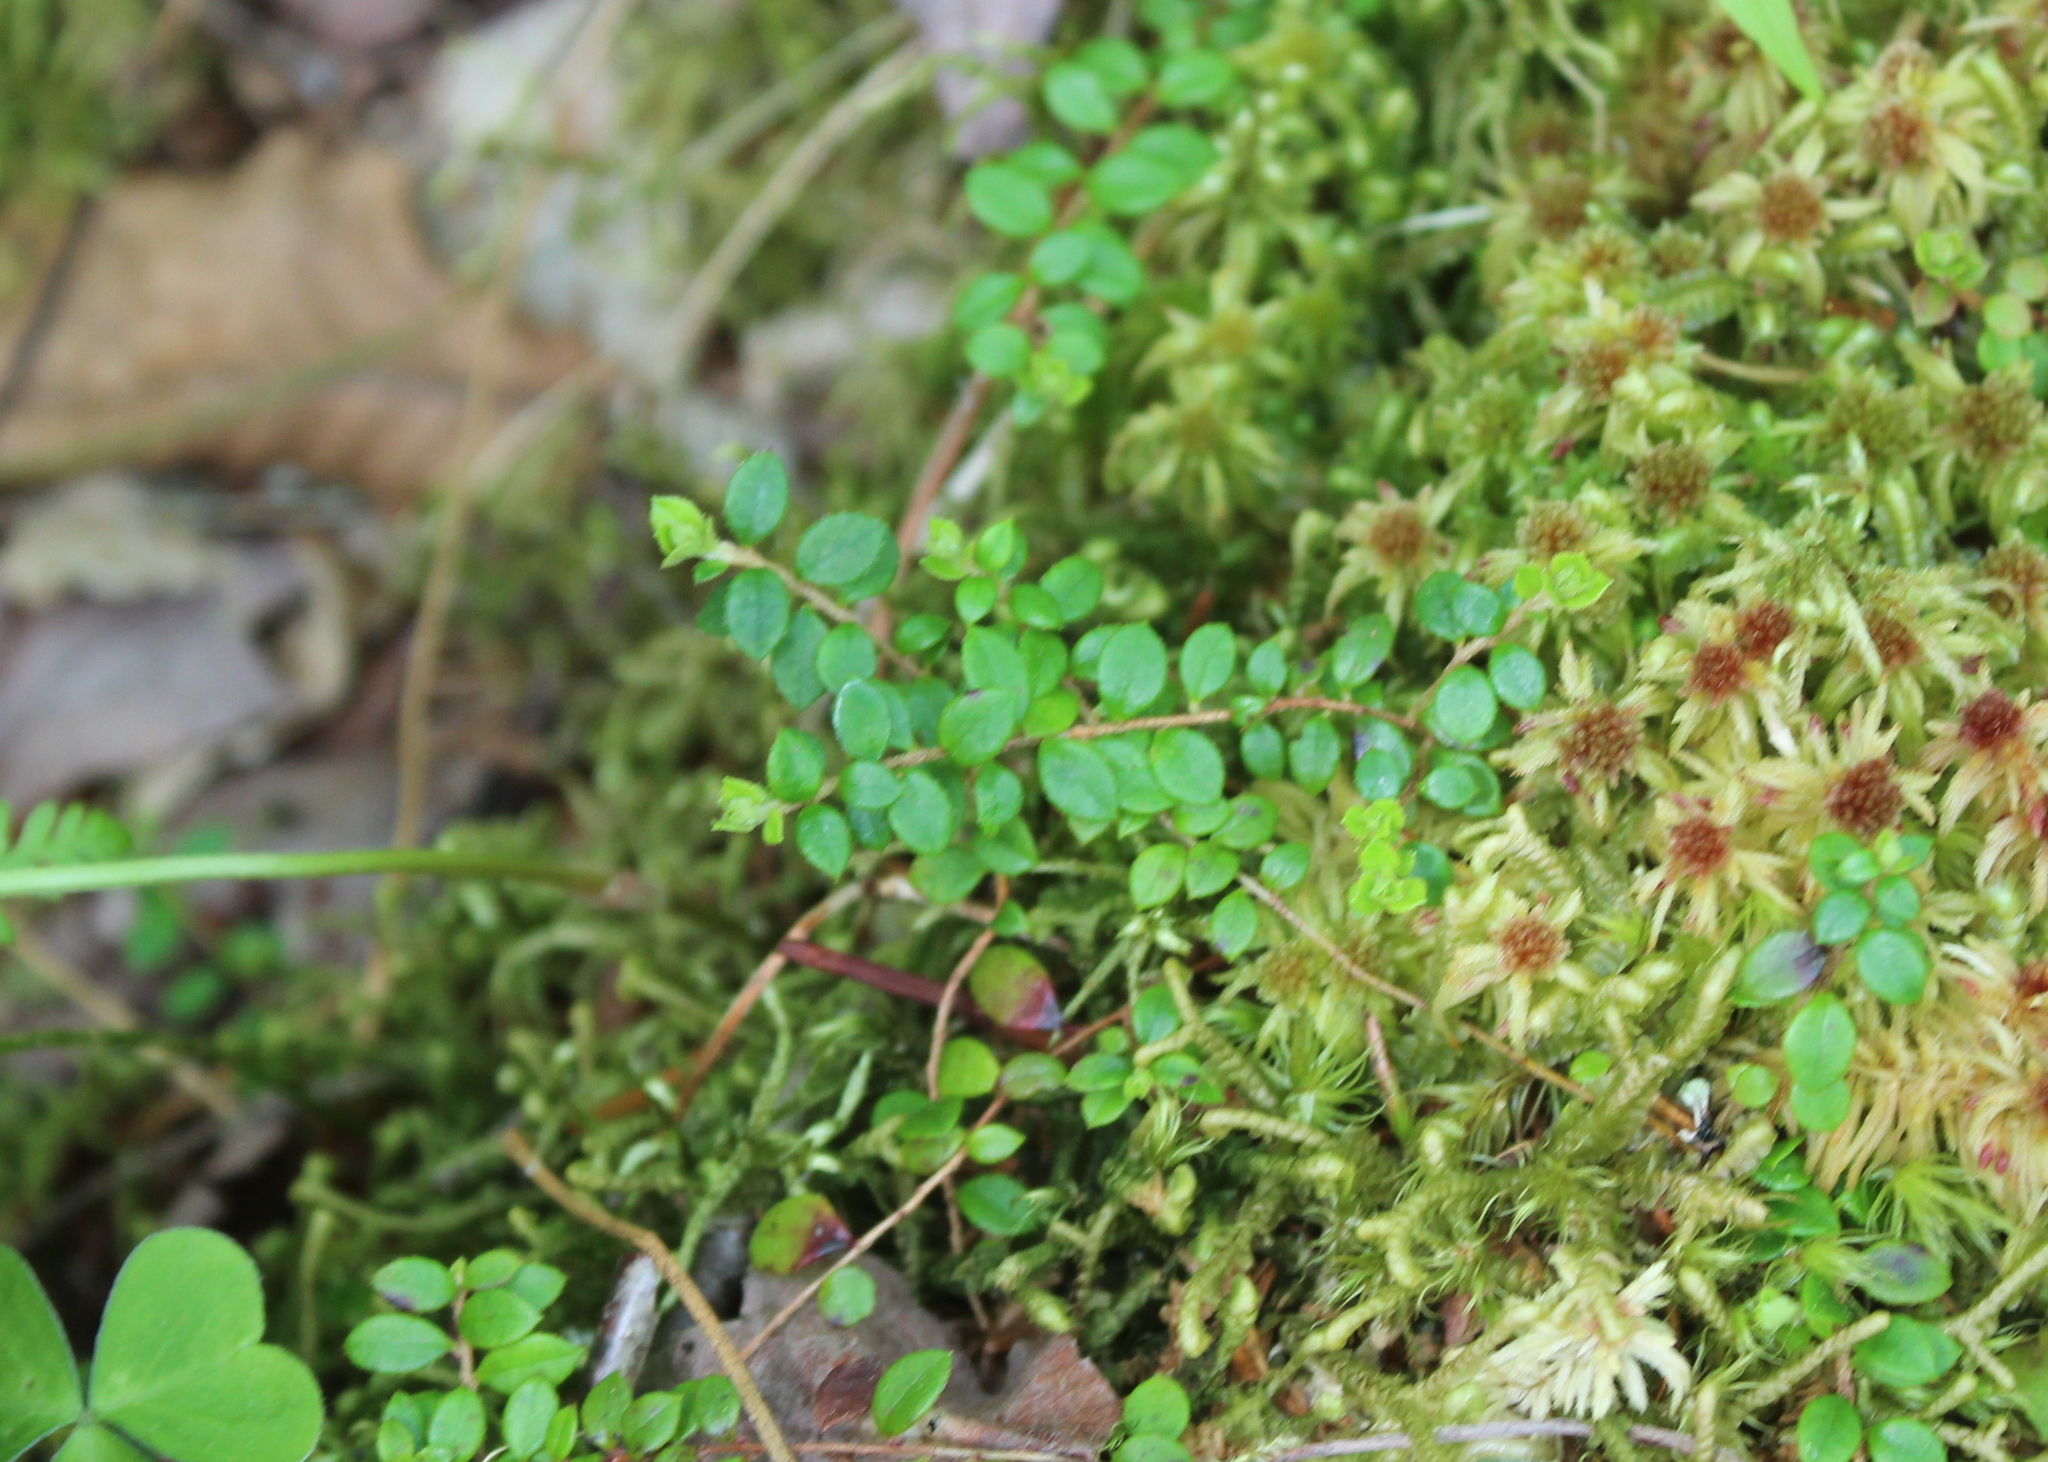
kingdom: Plantae
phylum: Tracheophyta
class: Magnoliopsida
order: Ericales
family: Ericaceae
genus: Gaultheria
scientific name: Gaultheria hispidula
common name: Cancer wintergreen
